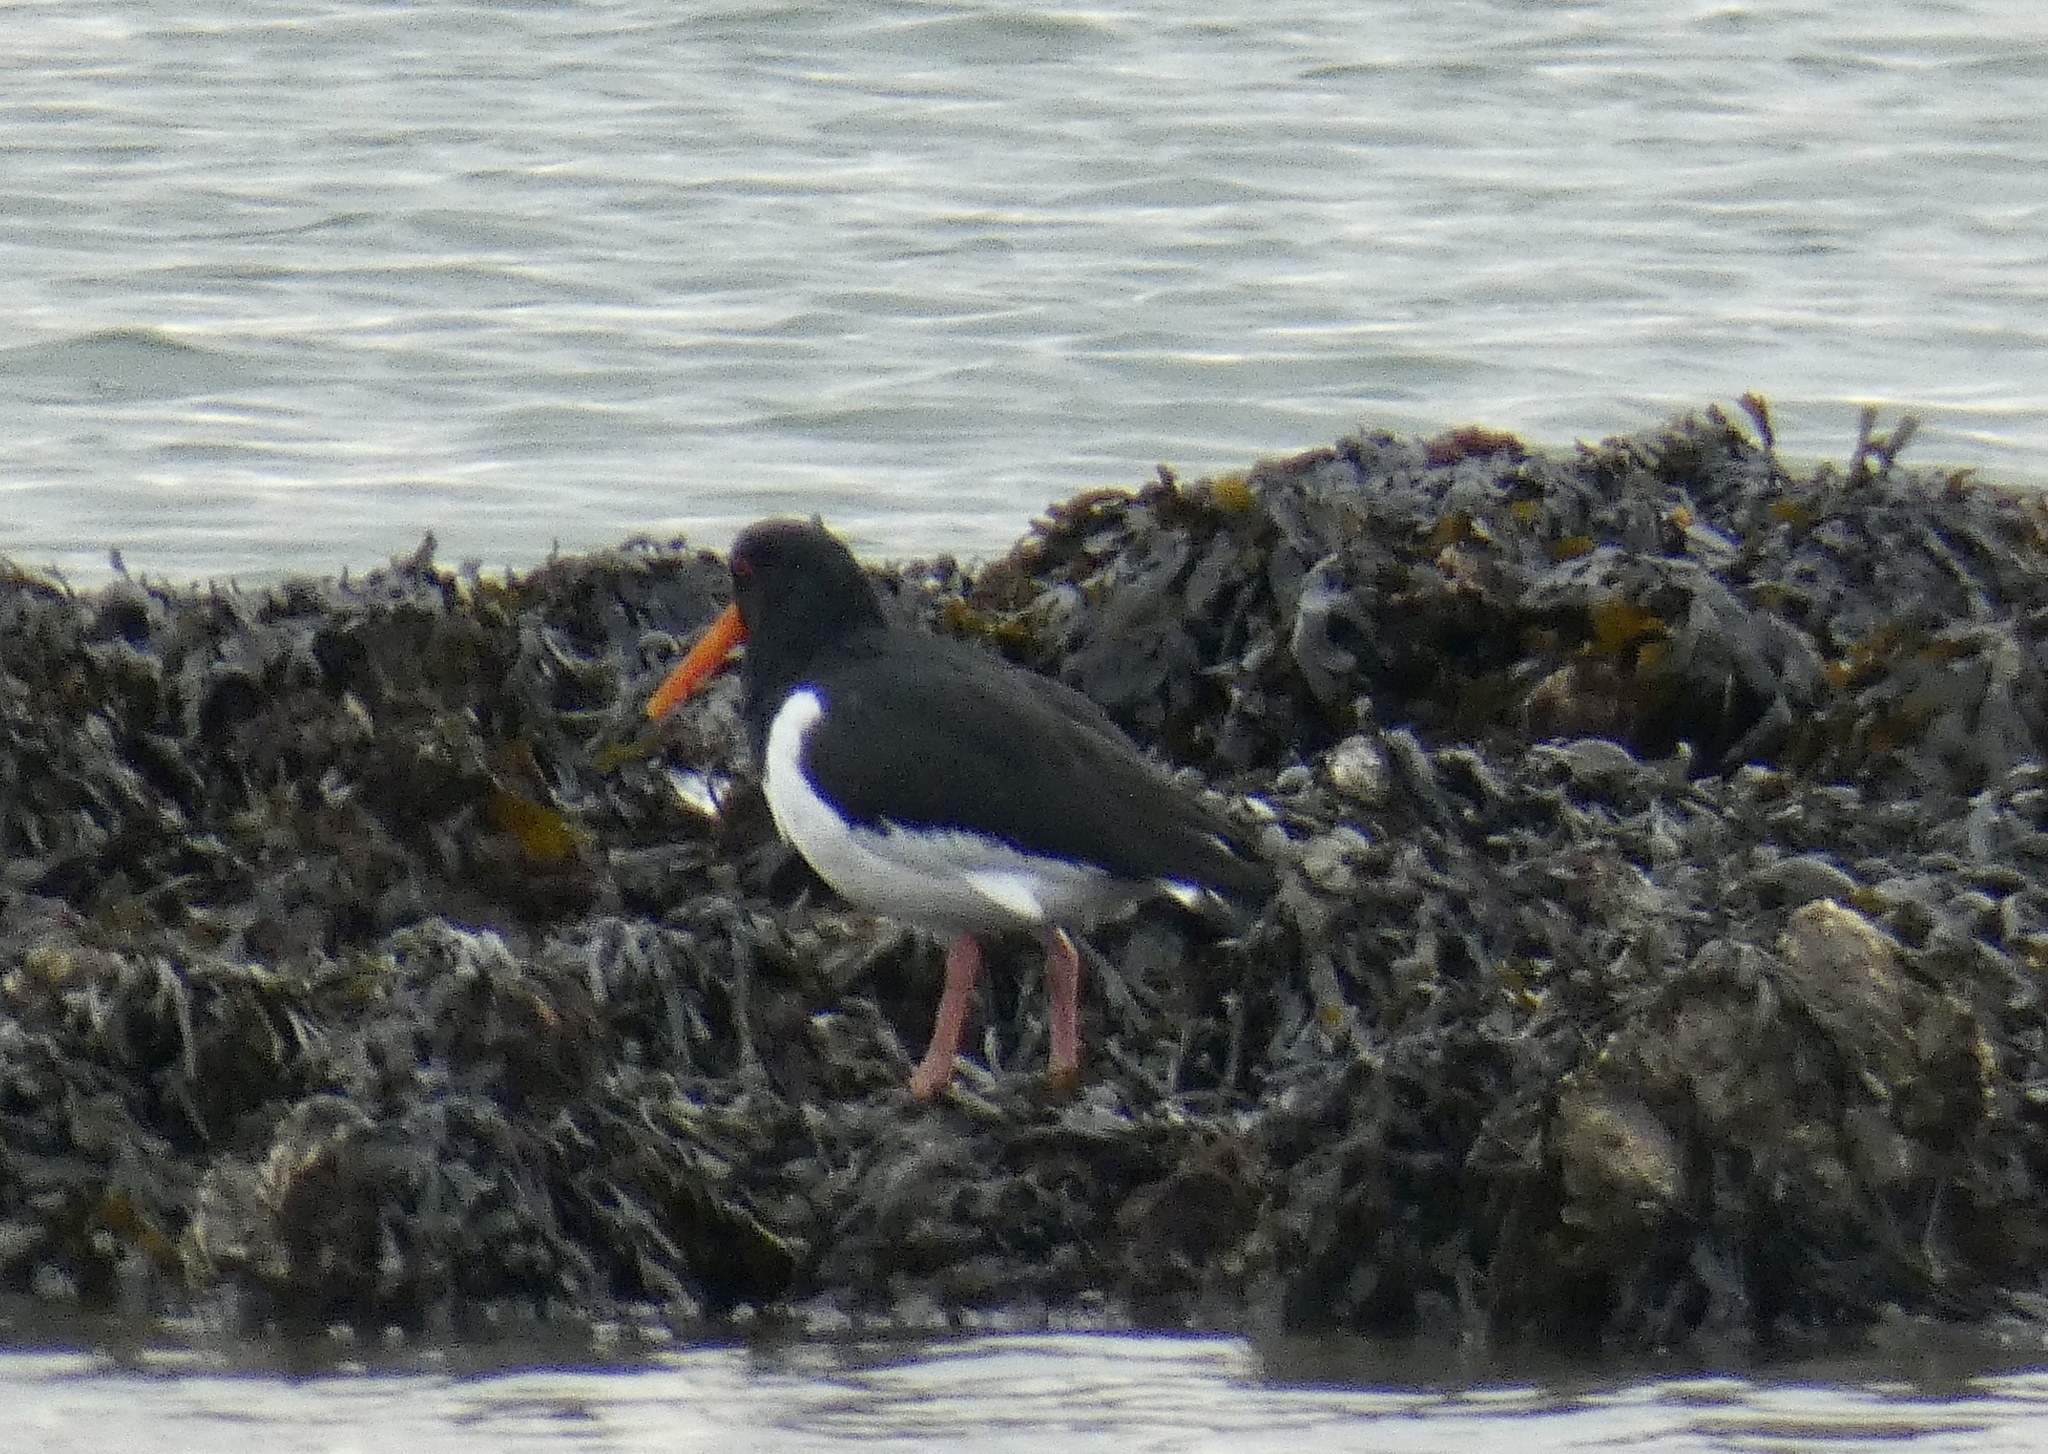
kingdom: Animalia
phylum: Chordata
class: Aves
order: Charadriiformes
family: Haematopodidae
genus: Haematopus
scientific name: Haematopus ostralegus
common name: Eurasian oystercatcher
